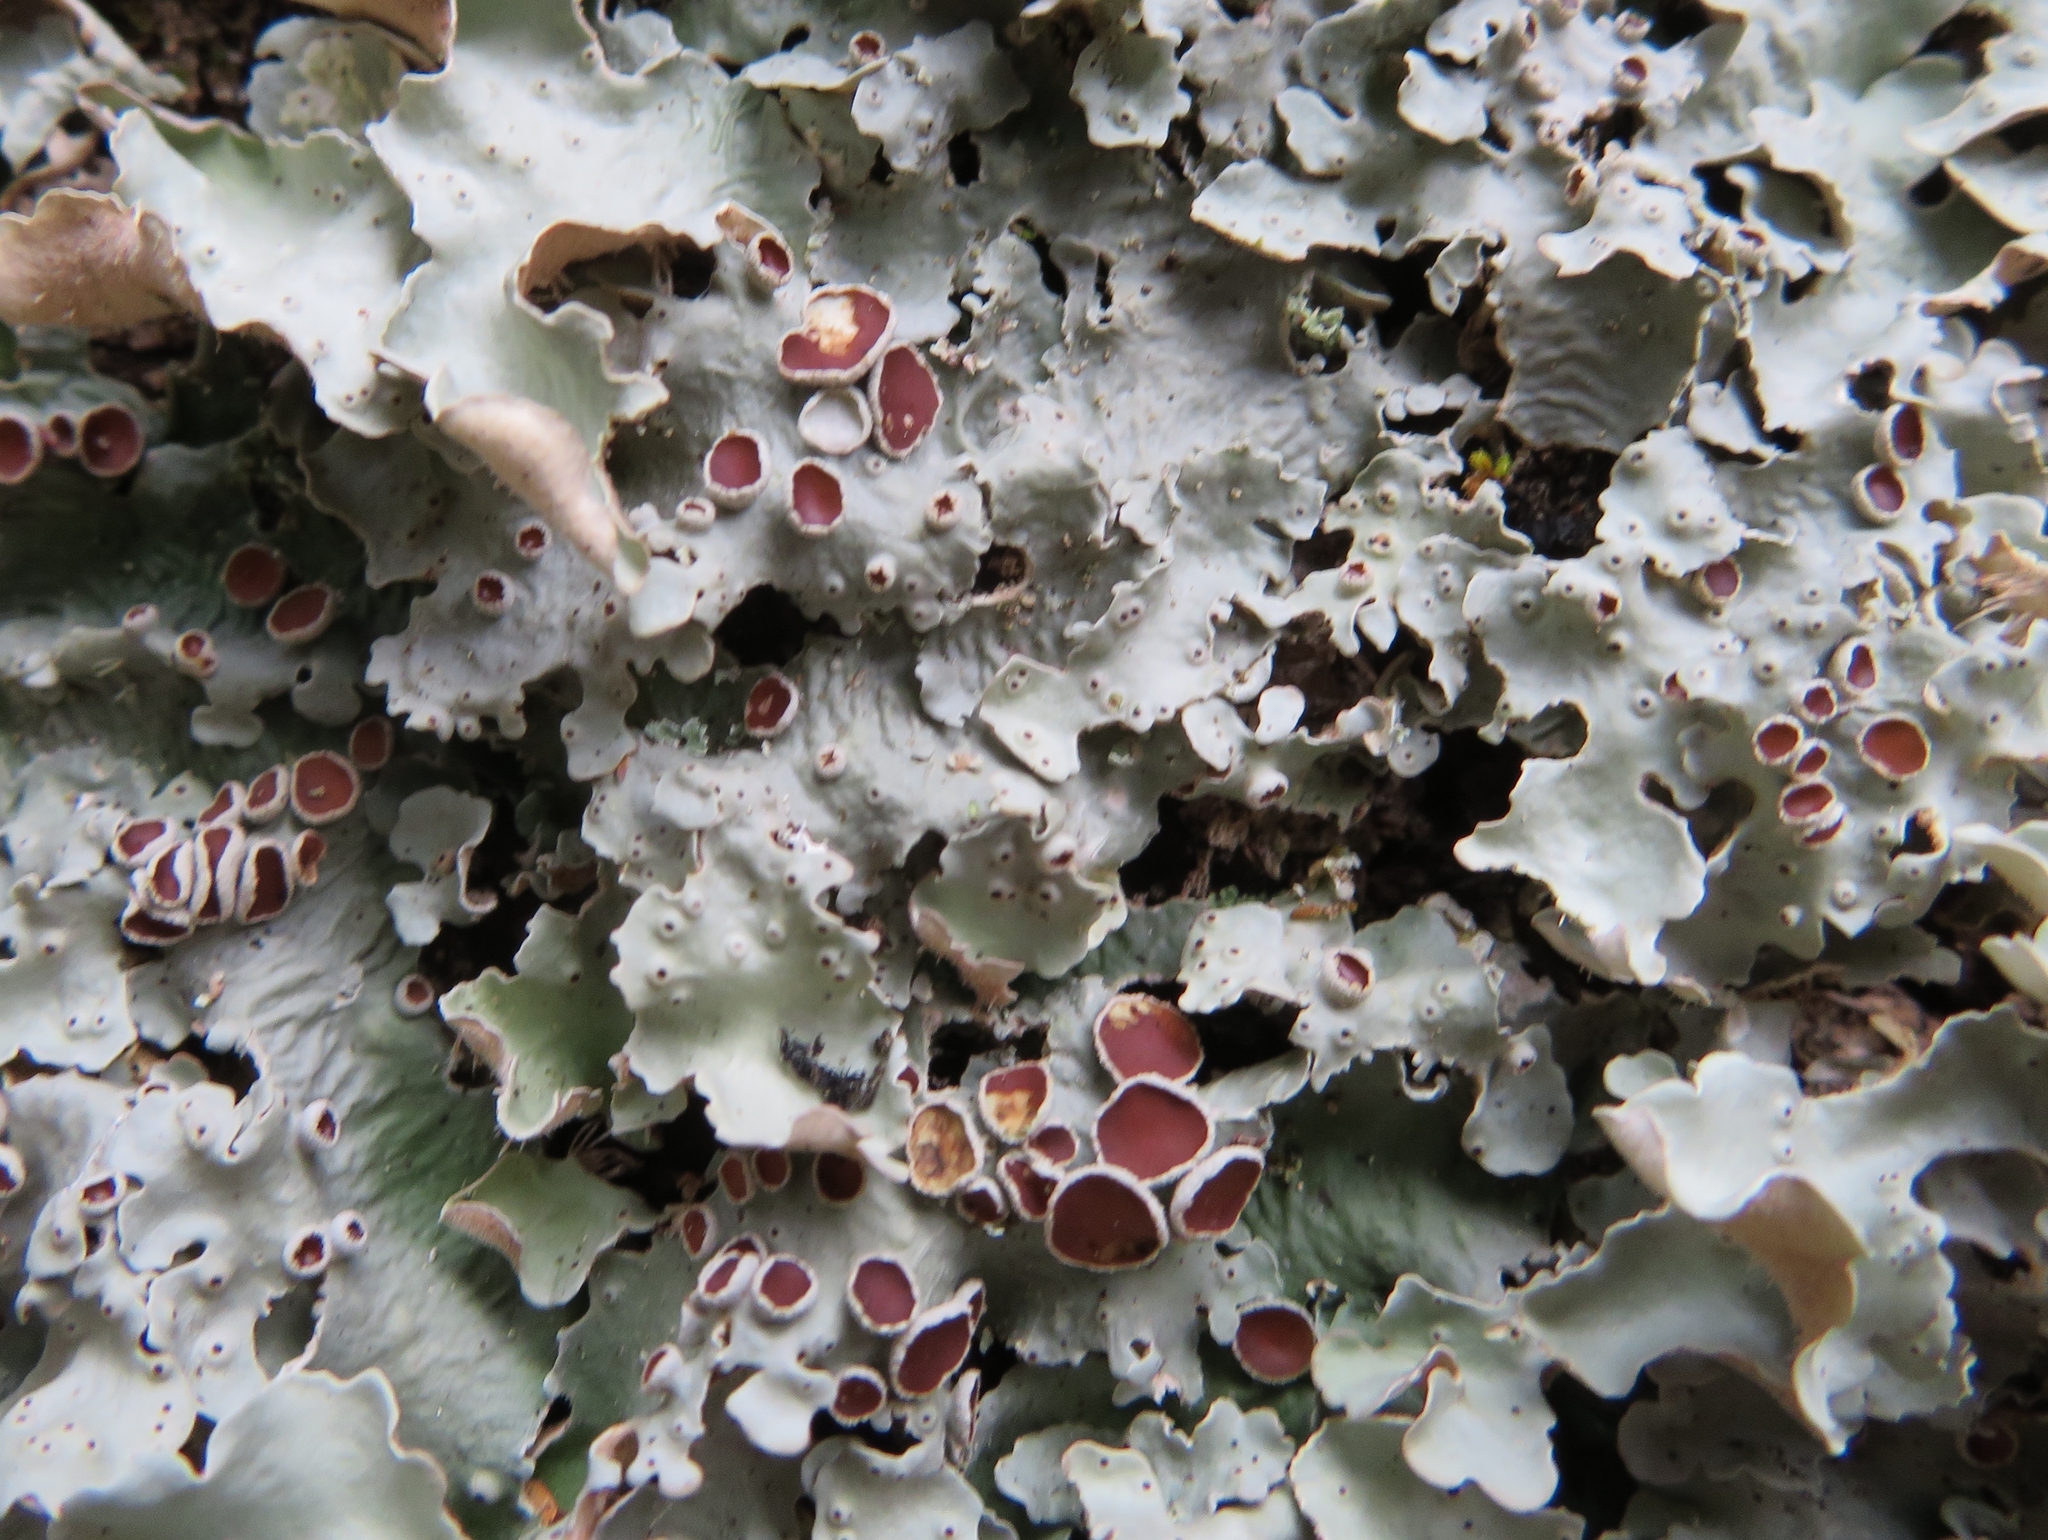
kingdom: Fungi
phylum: Ascomycota
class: Lecanoromycetes
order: Peltigerales
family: Lobariaceae
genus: Ricasolia
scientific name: Ricasolia quercizans
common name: Smooth lungwort
